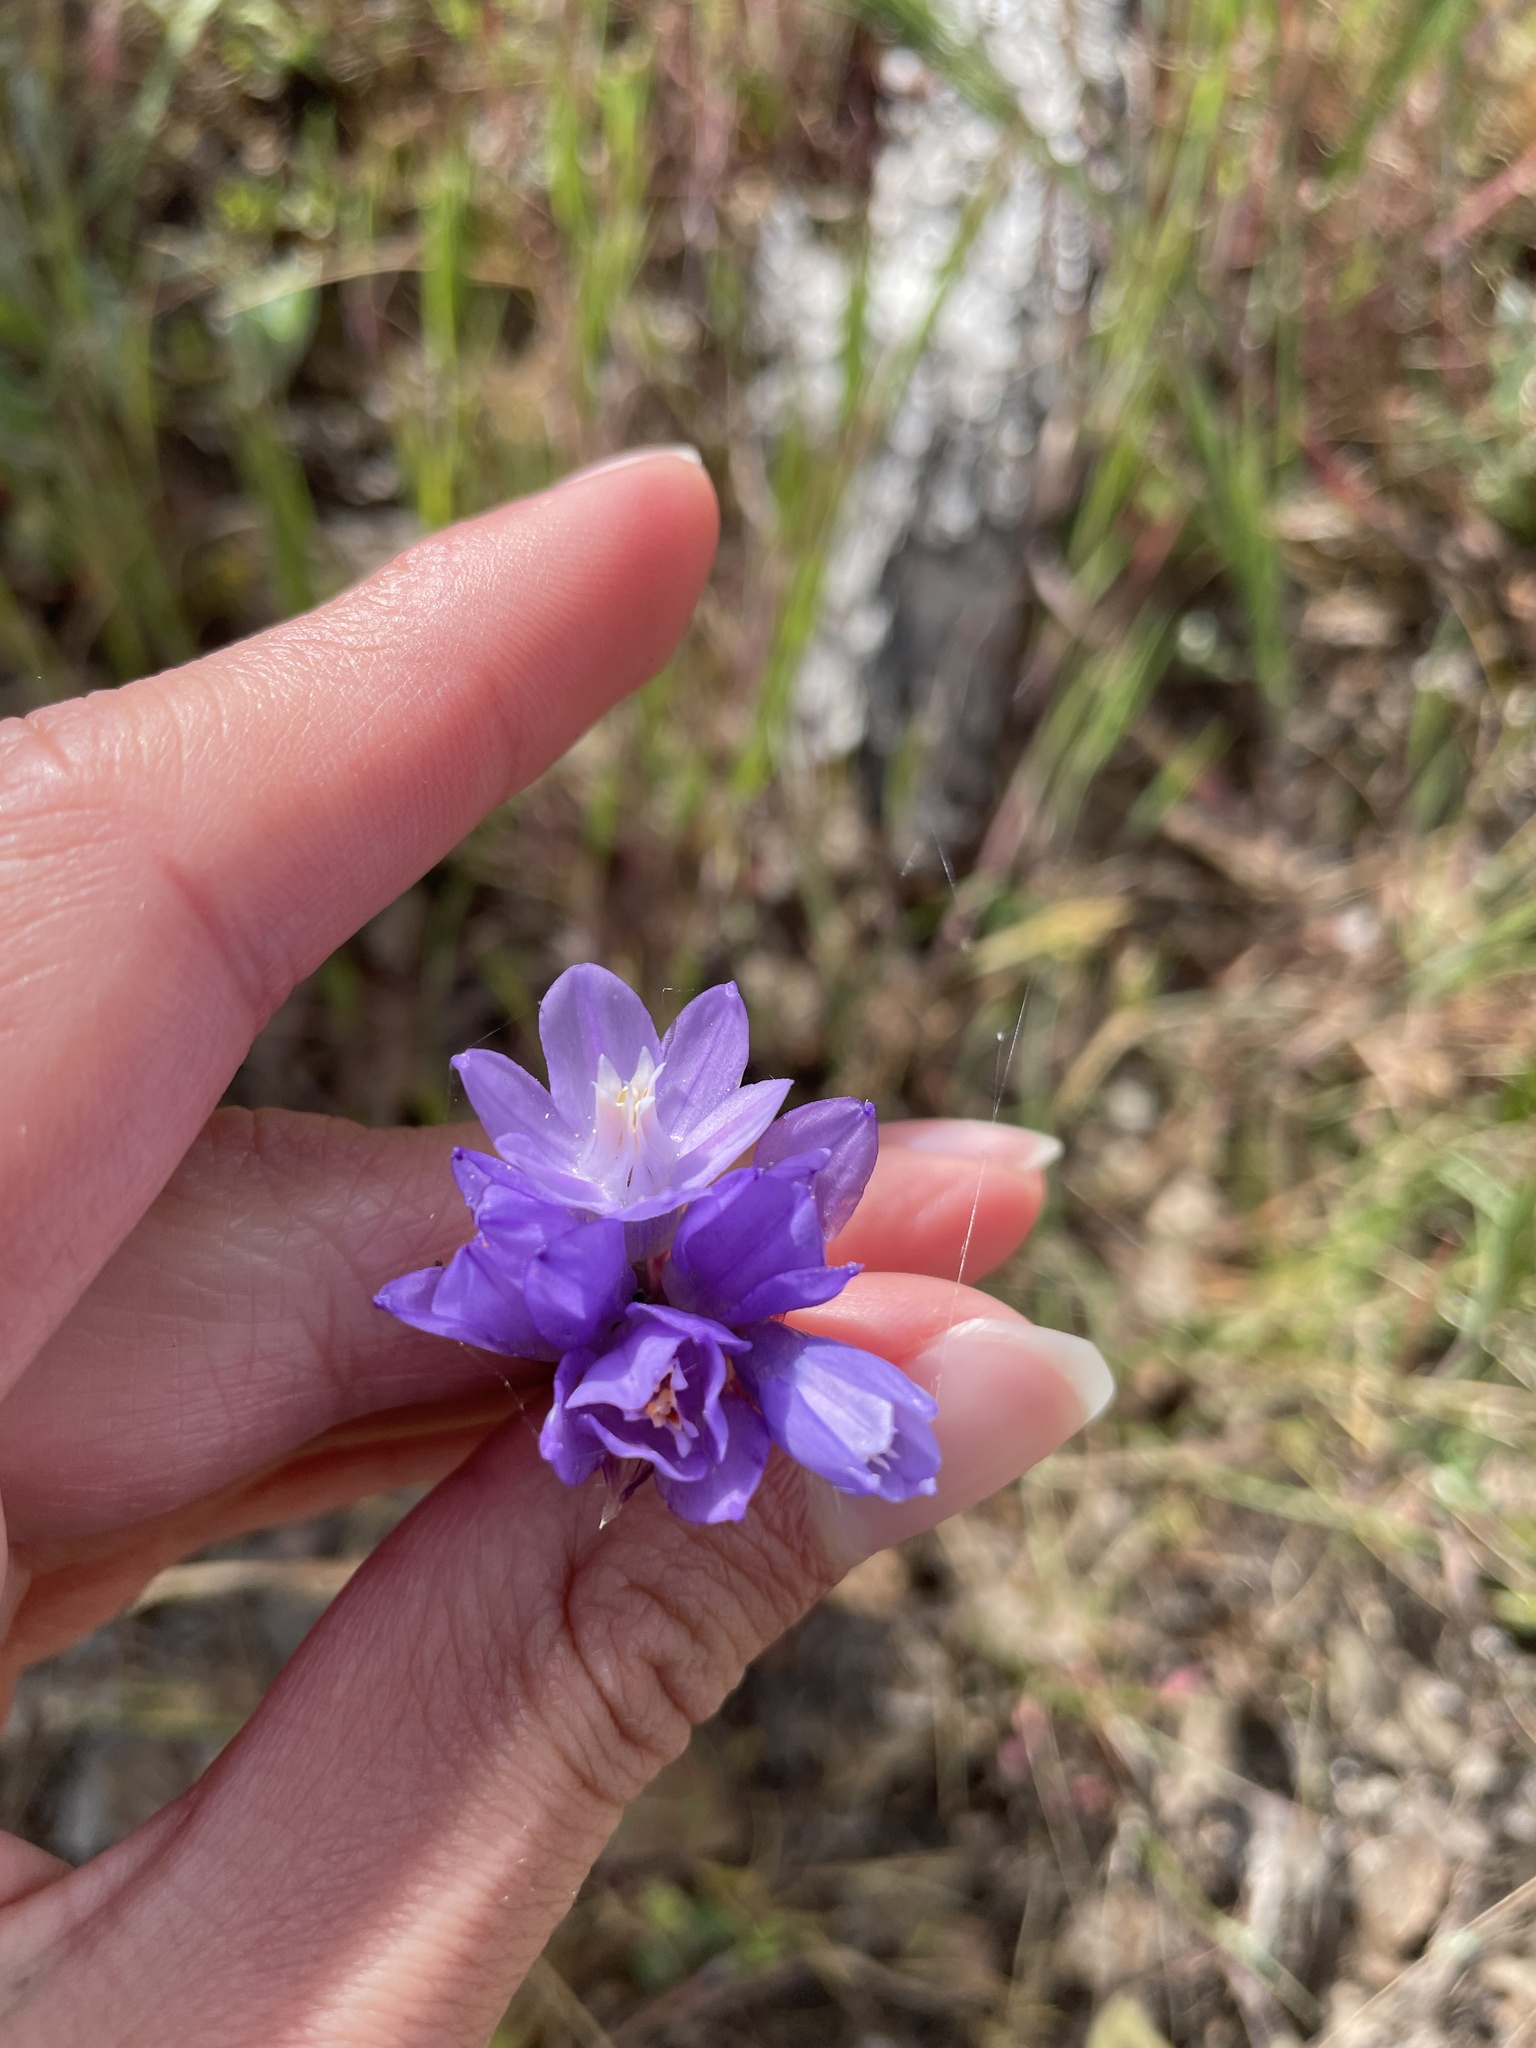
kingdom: Plantae
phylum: Tracheophyta
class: Liliopsida
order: Asparagales
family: Asparagaceae
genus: Dipterostemon
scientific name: Dipterostemon capitatus
